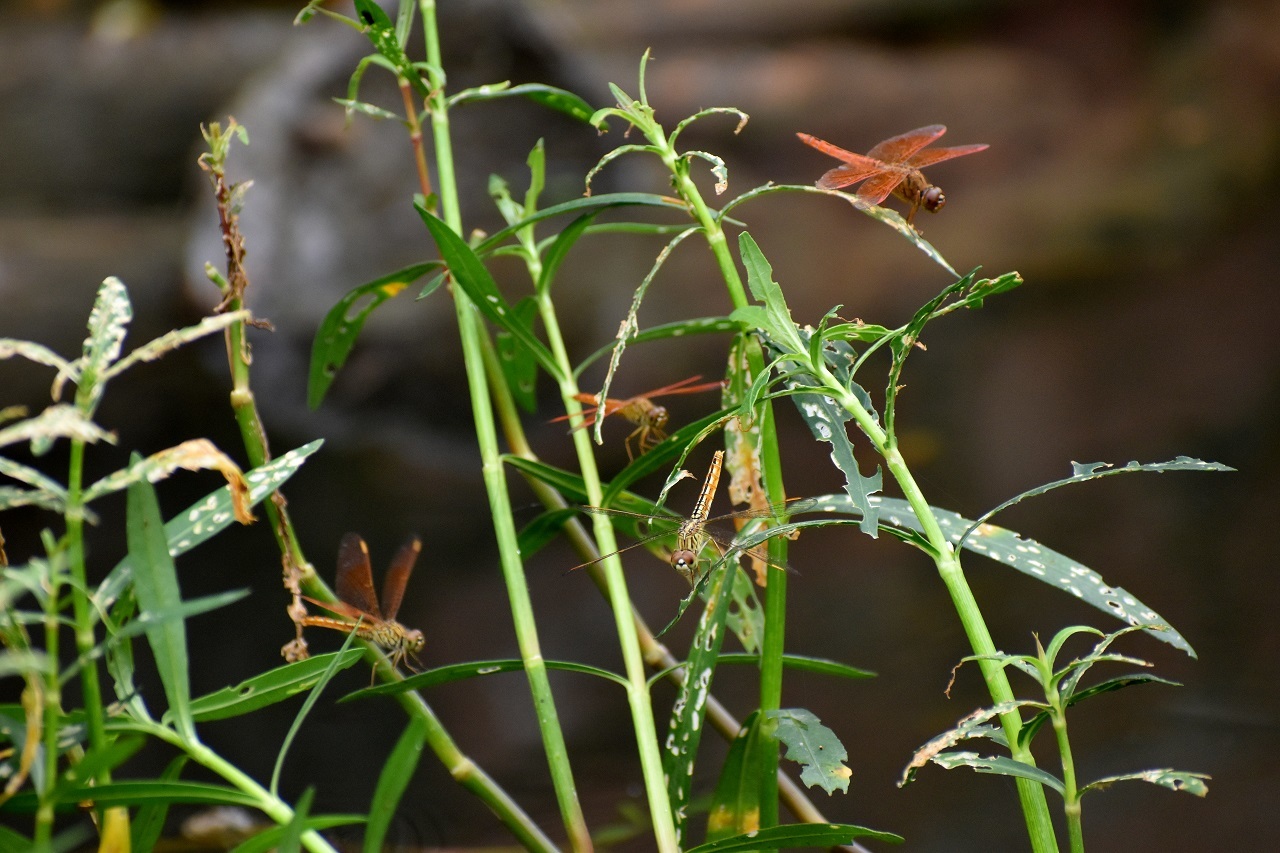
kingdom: Animalia
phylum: Arthropoda
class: Insecta
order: Odonata
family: Libellulidae
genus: Brachythemis
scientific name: Brachythemis contaminata
